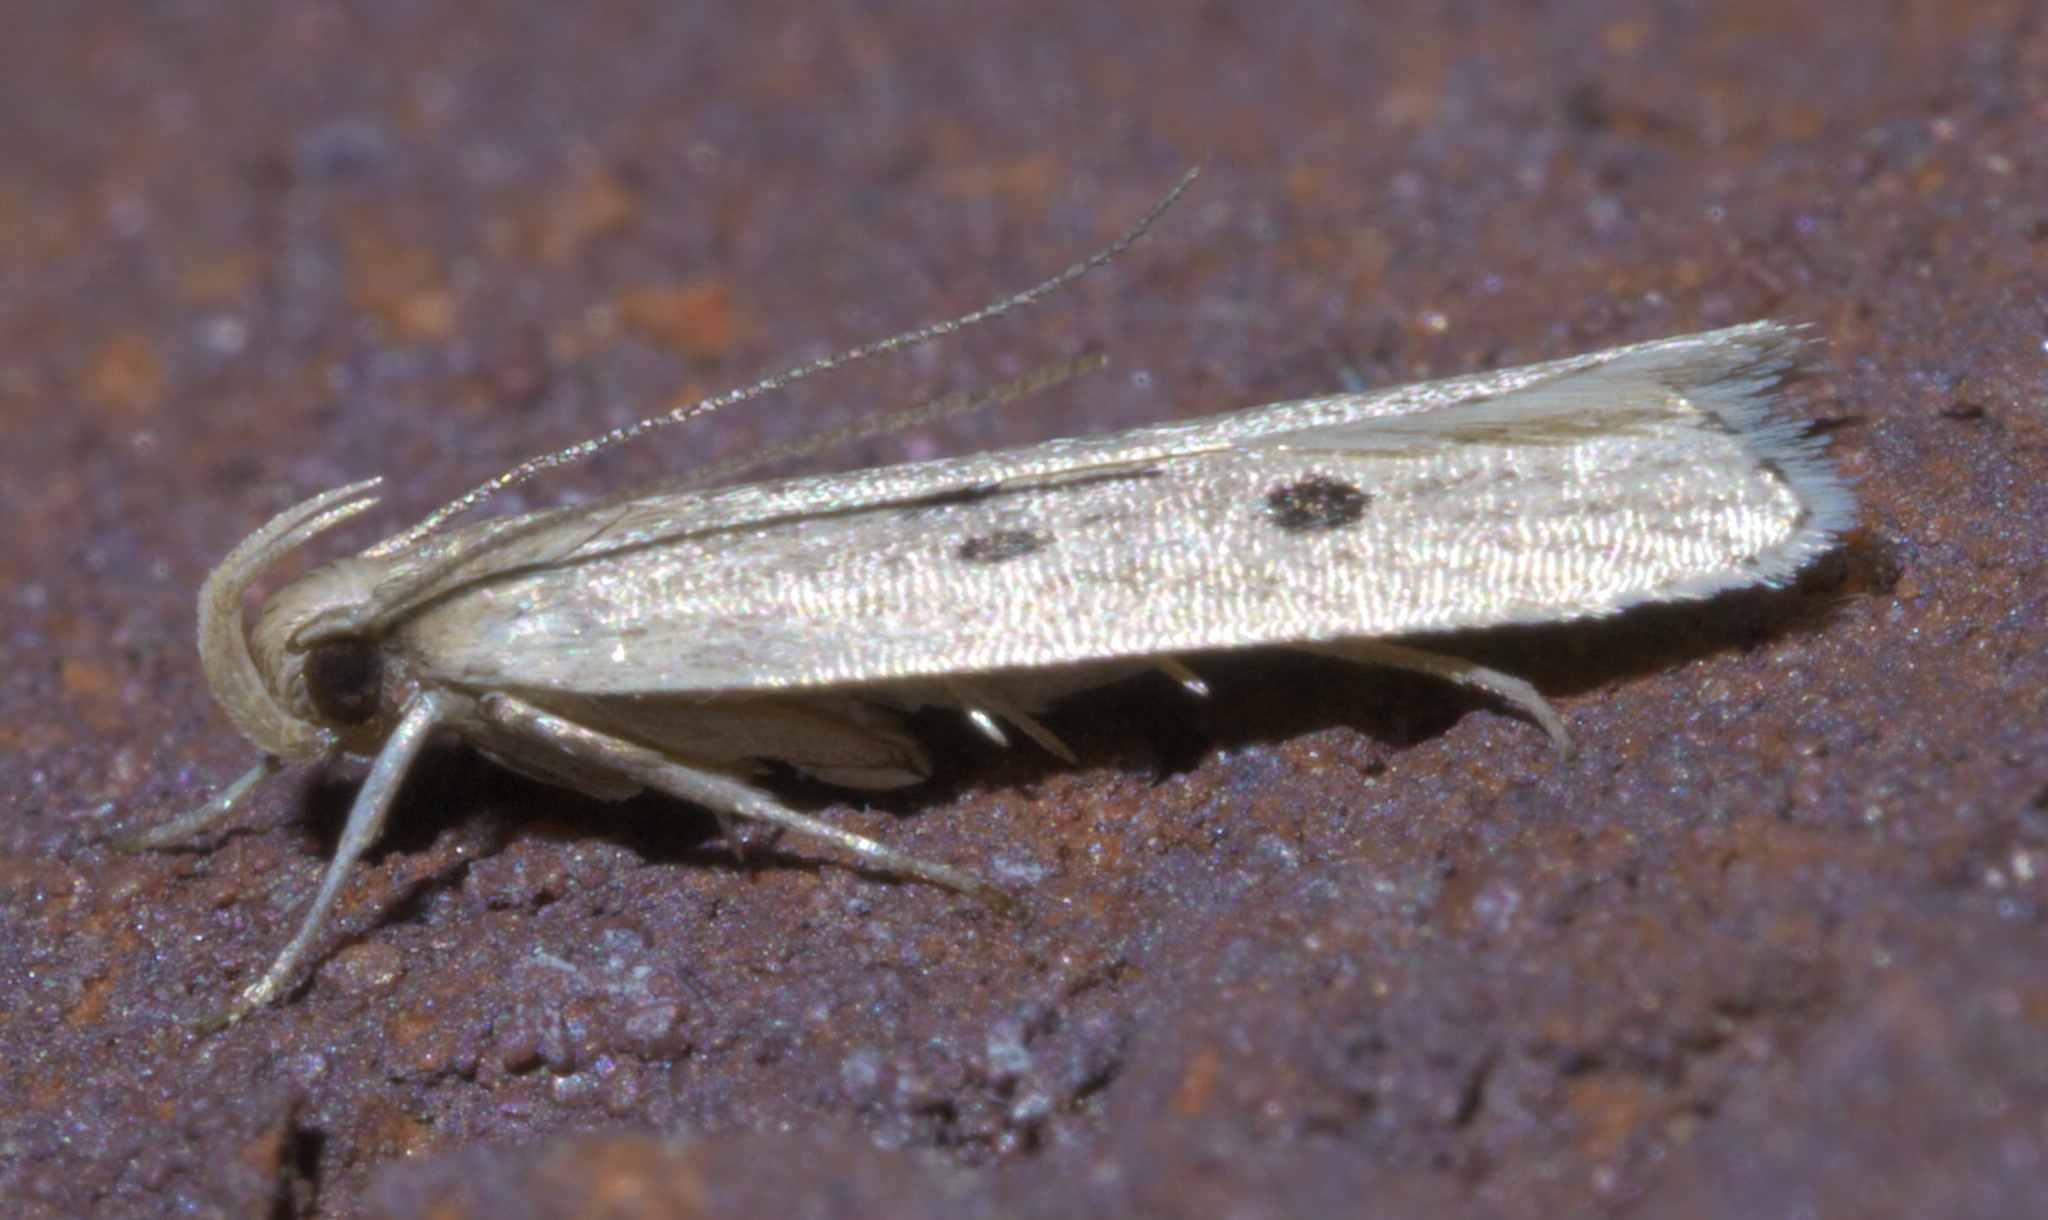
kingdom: Animalia
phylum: Arthropoda
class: Insecta
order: Lepidoptera
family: Gelechiidae
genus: Helcystogramma
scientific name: Helcystogramma melanocarpa
